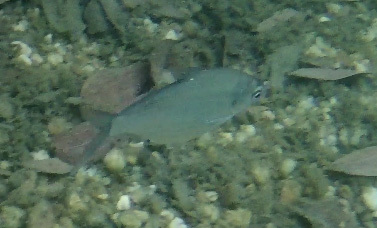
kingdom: Animalia
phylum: Chordata
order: Clupeiformes
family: Clupeidae
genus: Nematalosa
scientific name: Nematalosa erebi
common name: Australian river gizzard shad
